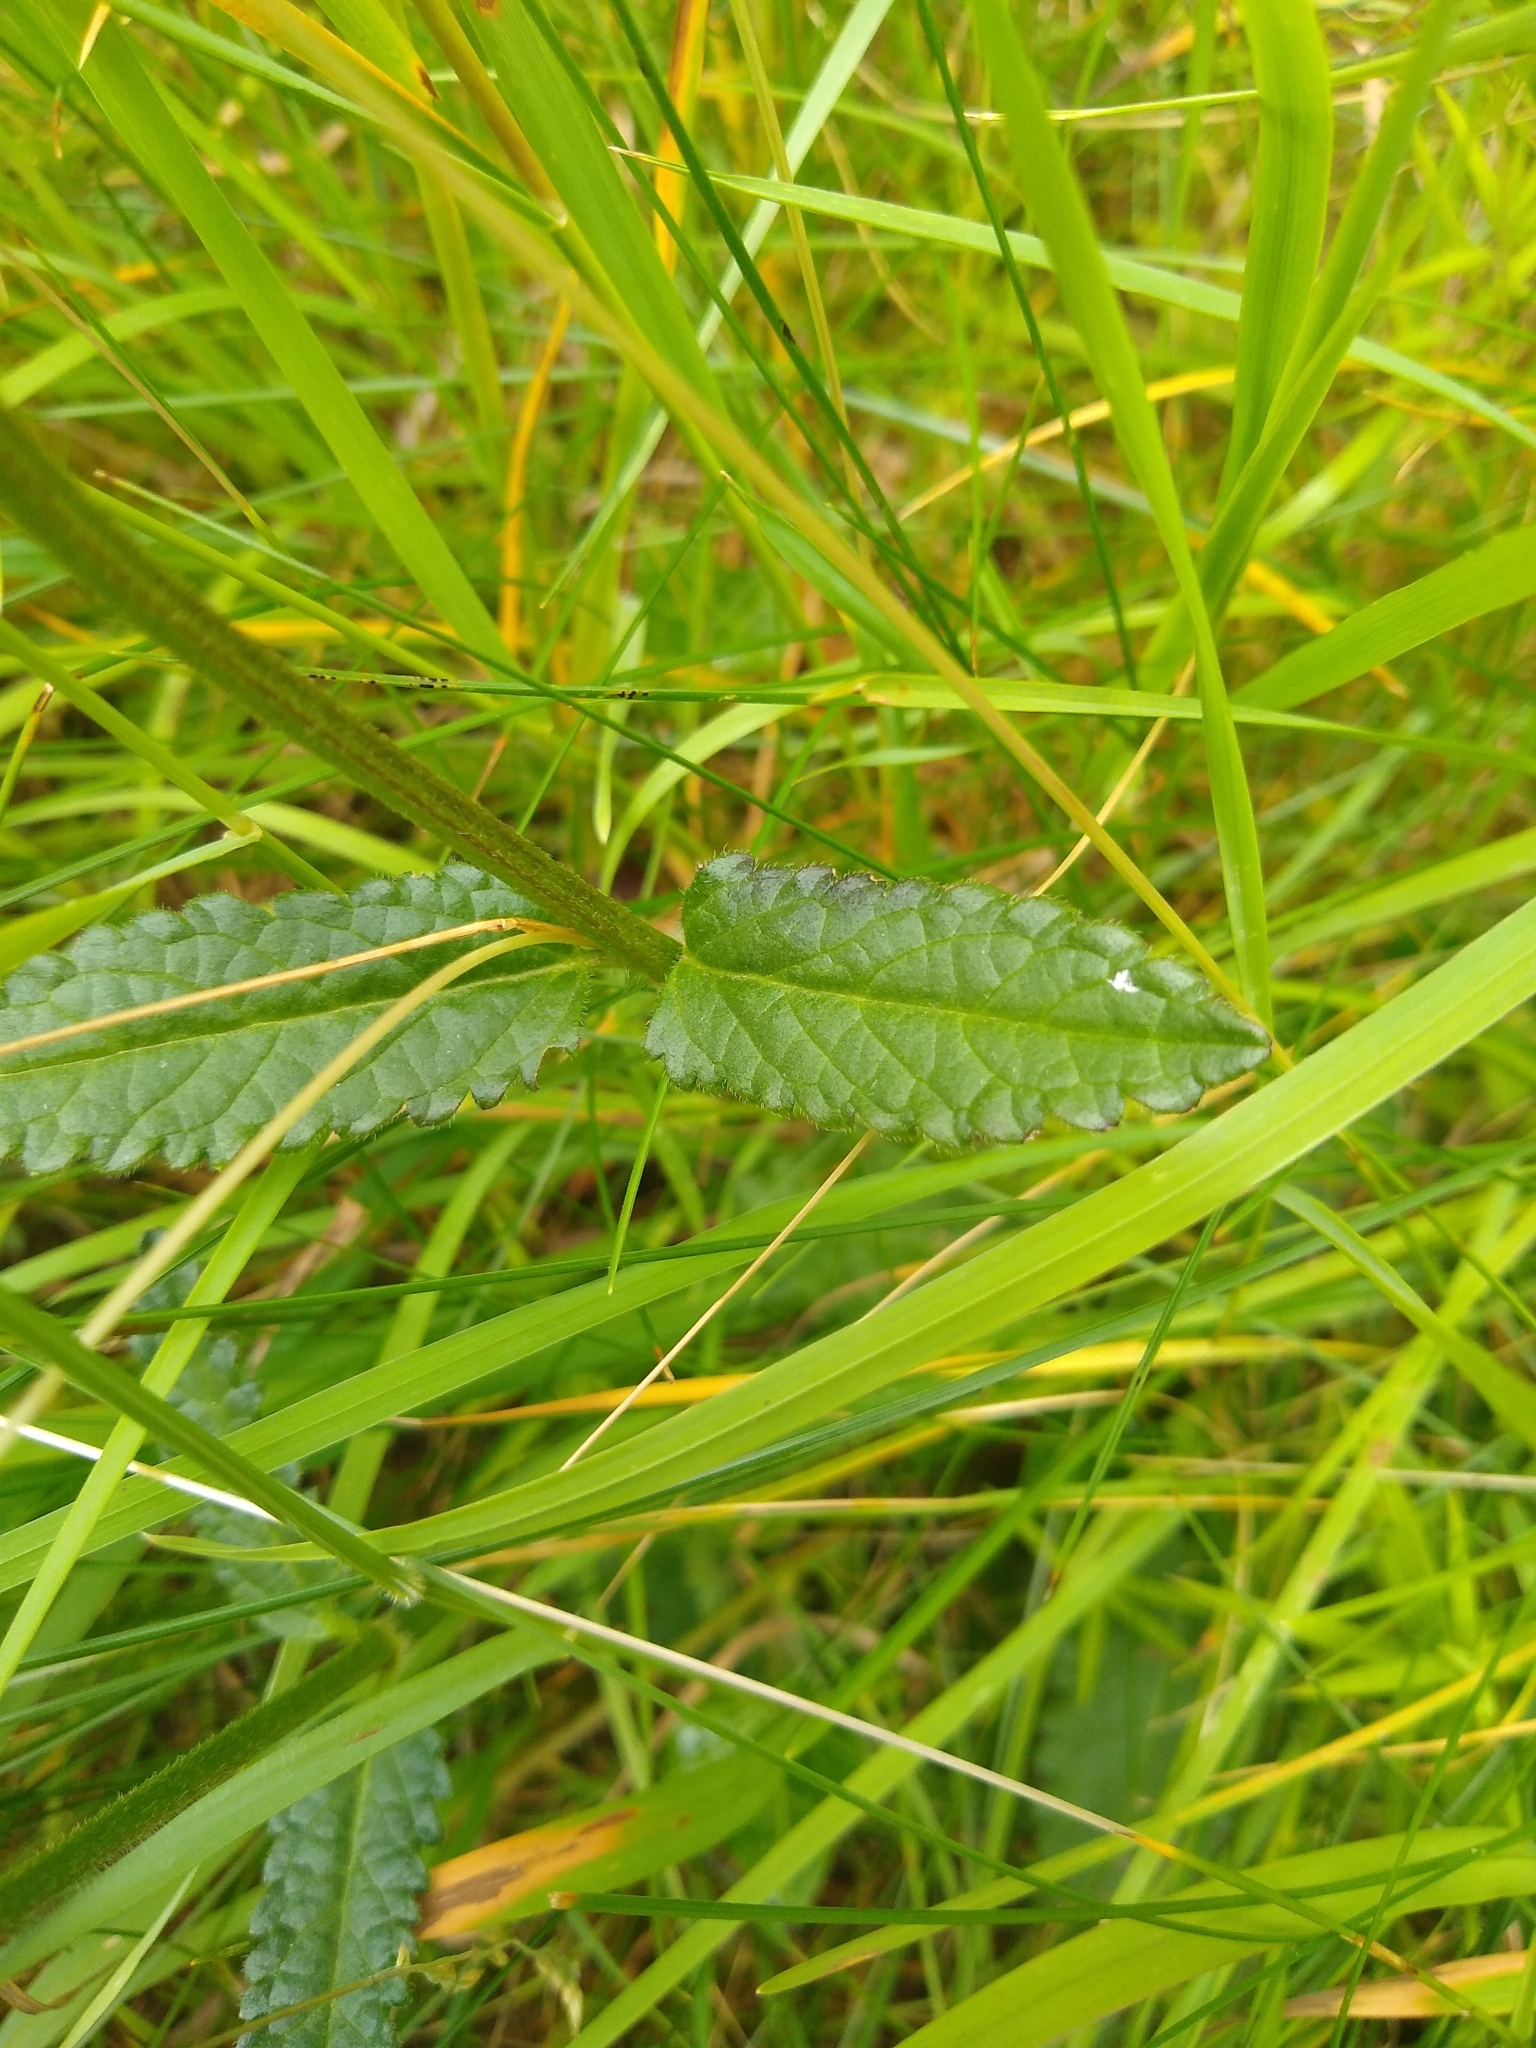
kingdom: Plantae
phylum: Tracheophyta
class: Magnoliopsida
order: Lamiales
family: Lamiaceae
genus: Betonica
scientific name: Betonica officinalis
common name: Bishop's-wort
